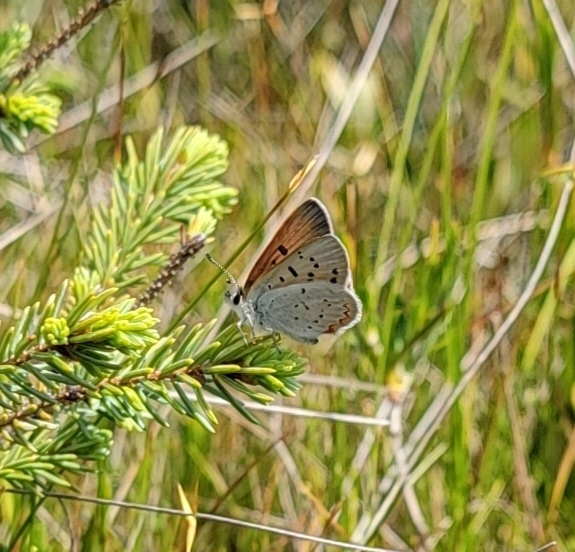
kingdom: Animalia
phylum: Arthropoda
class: Insecta
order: Lepidoptera
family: Lycaenidae
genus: Tharsalea
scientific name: Tharsalea epixanthe
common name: Bog copper
